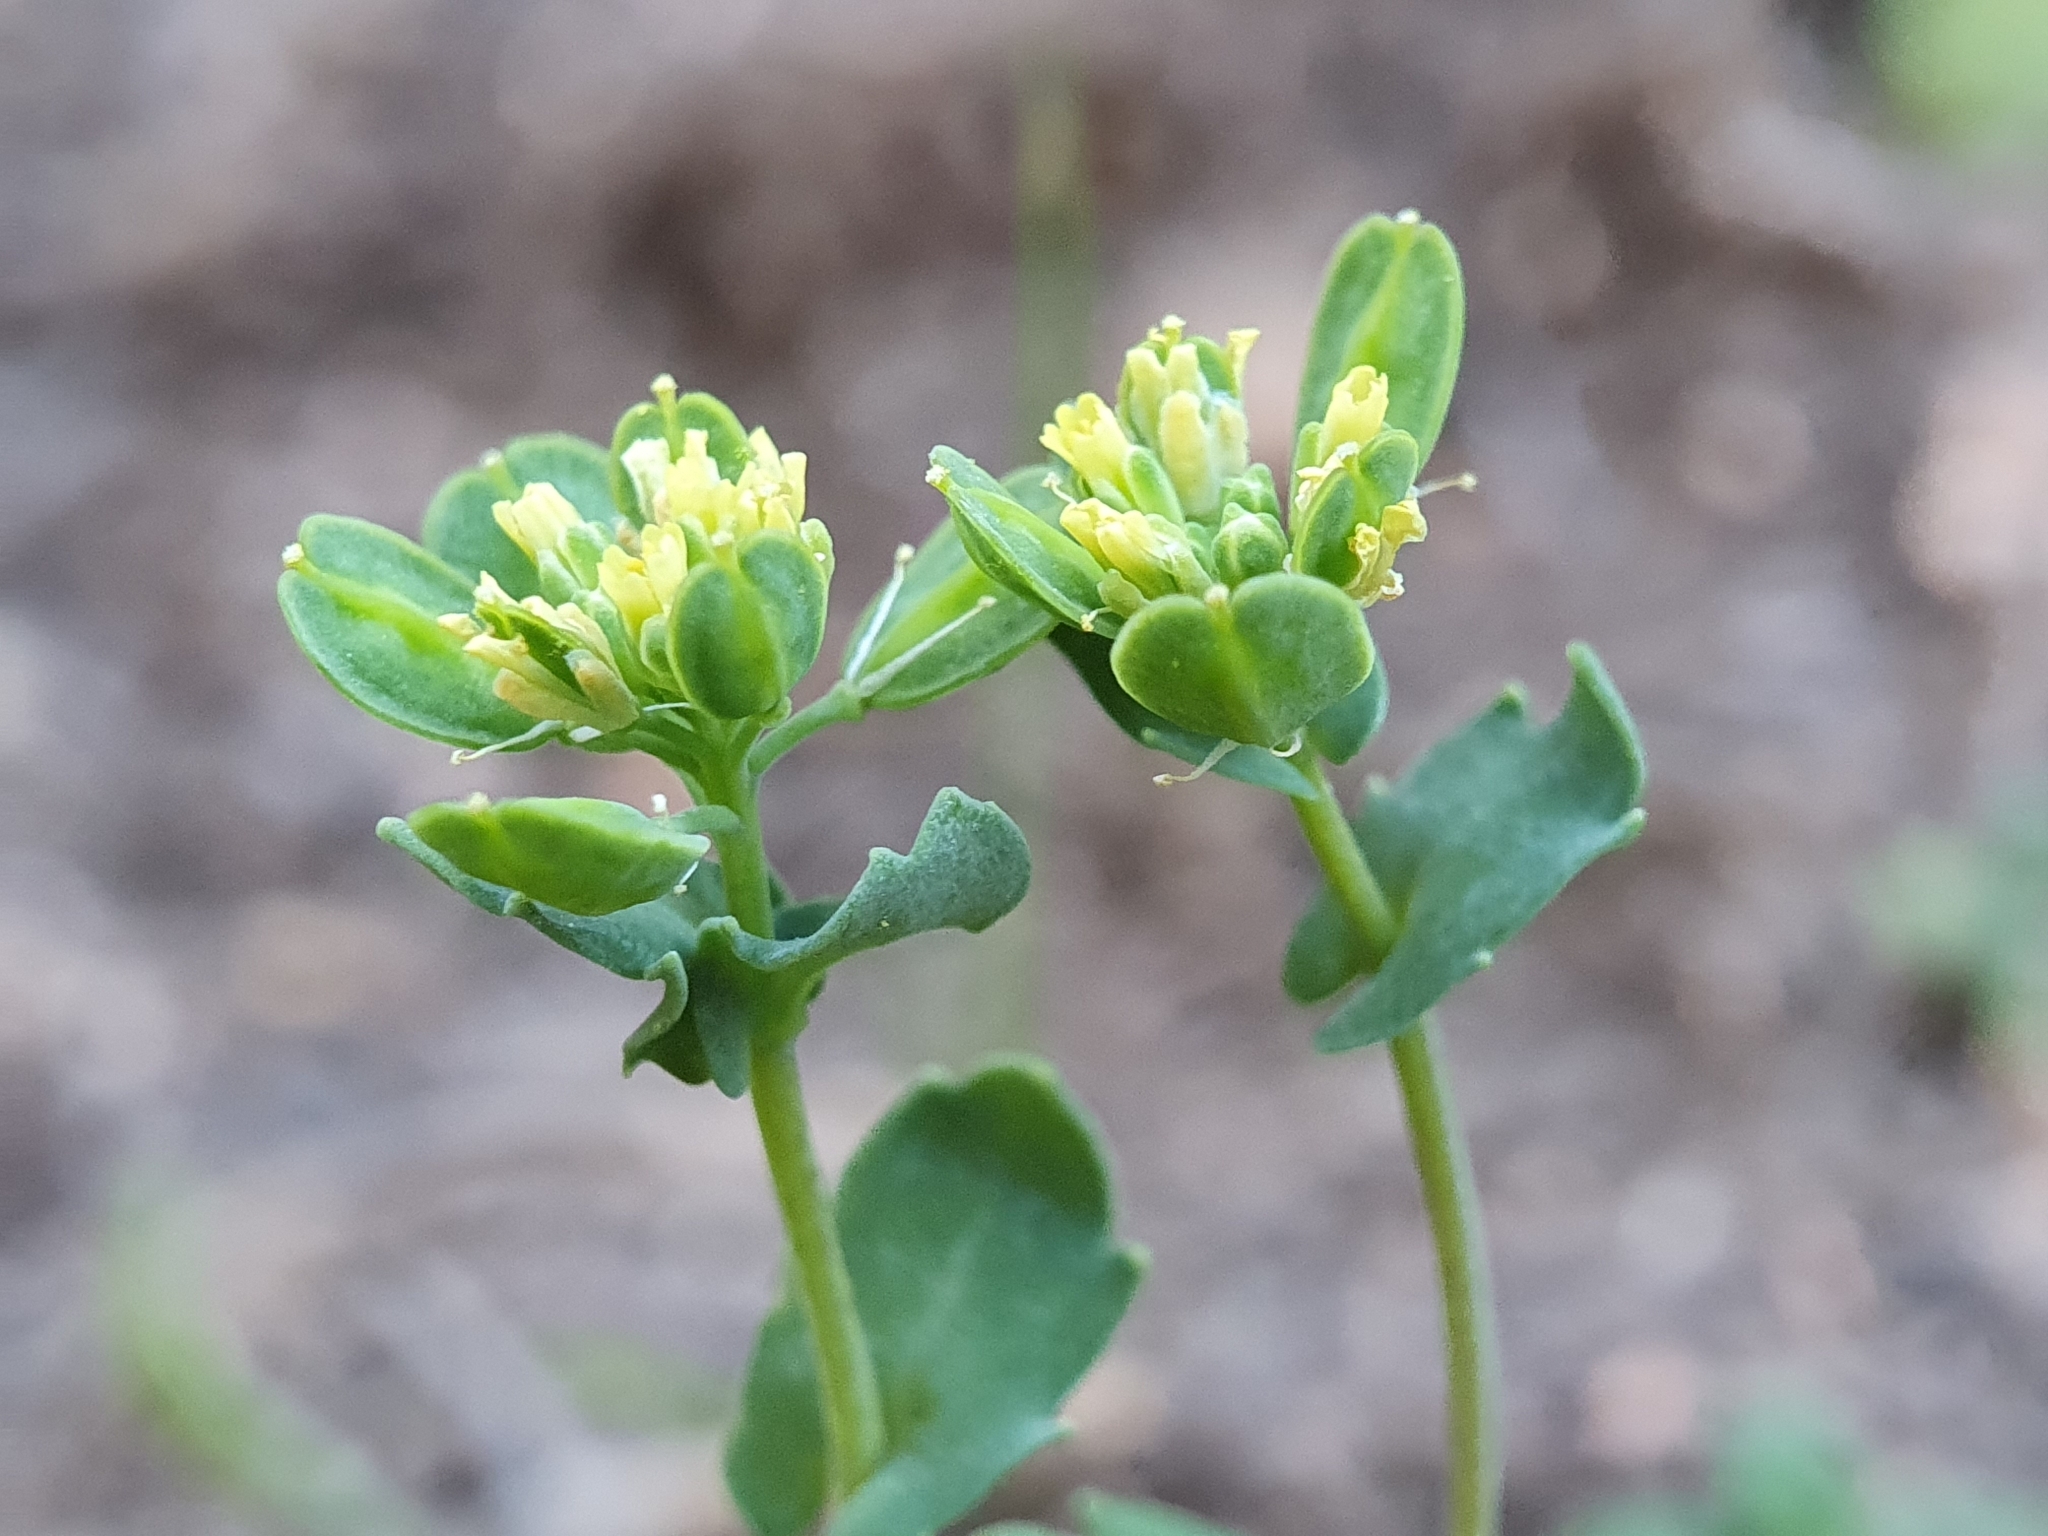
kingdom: Plantae
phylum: Tracheophyta
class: Magnoliopsida
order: Brassicales
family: Brassicaceae
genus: Bivonaea
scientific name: Bivonaea lutea
